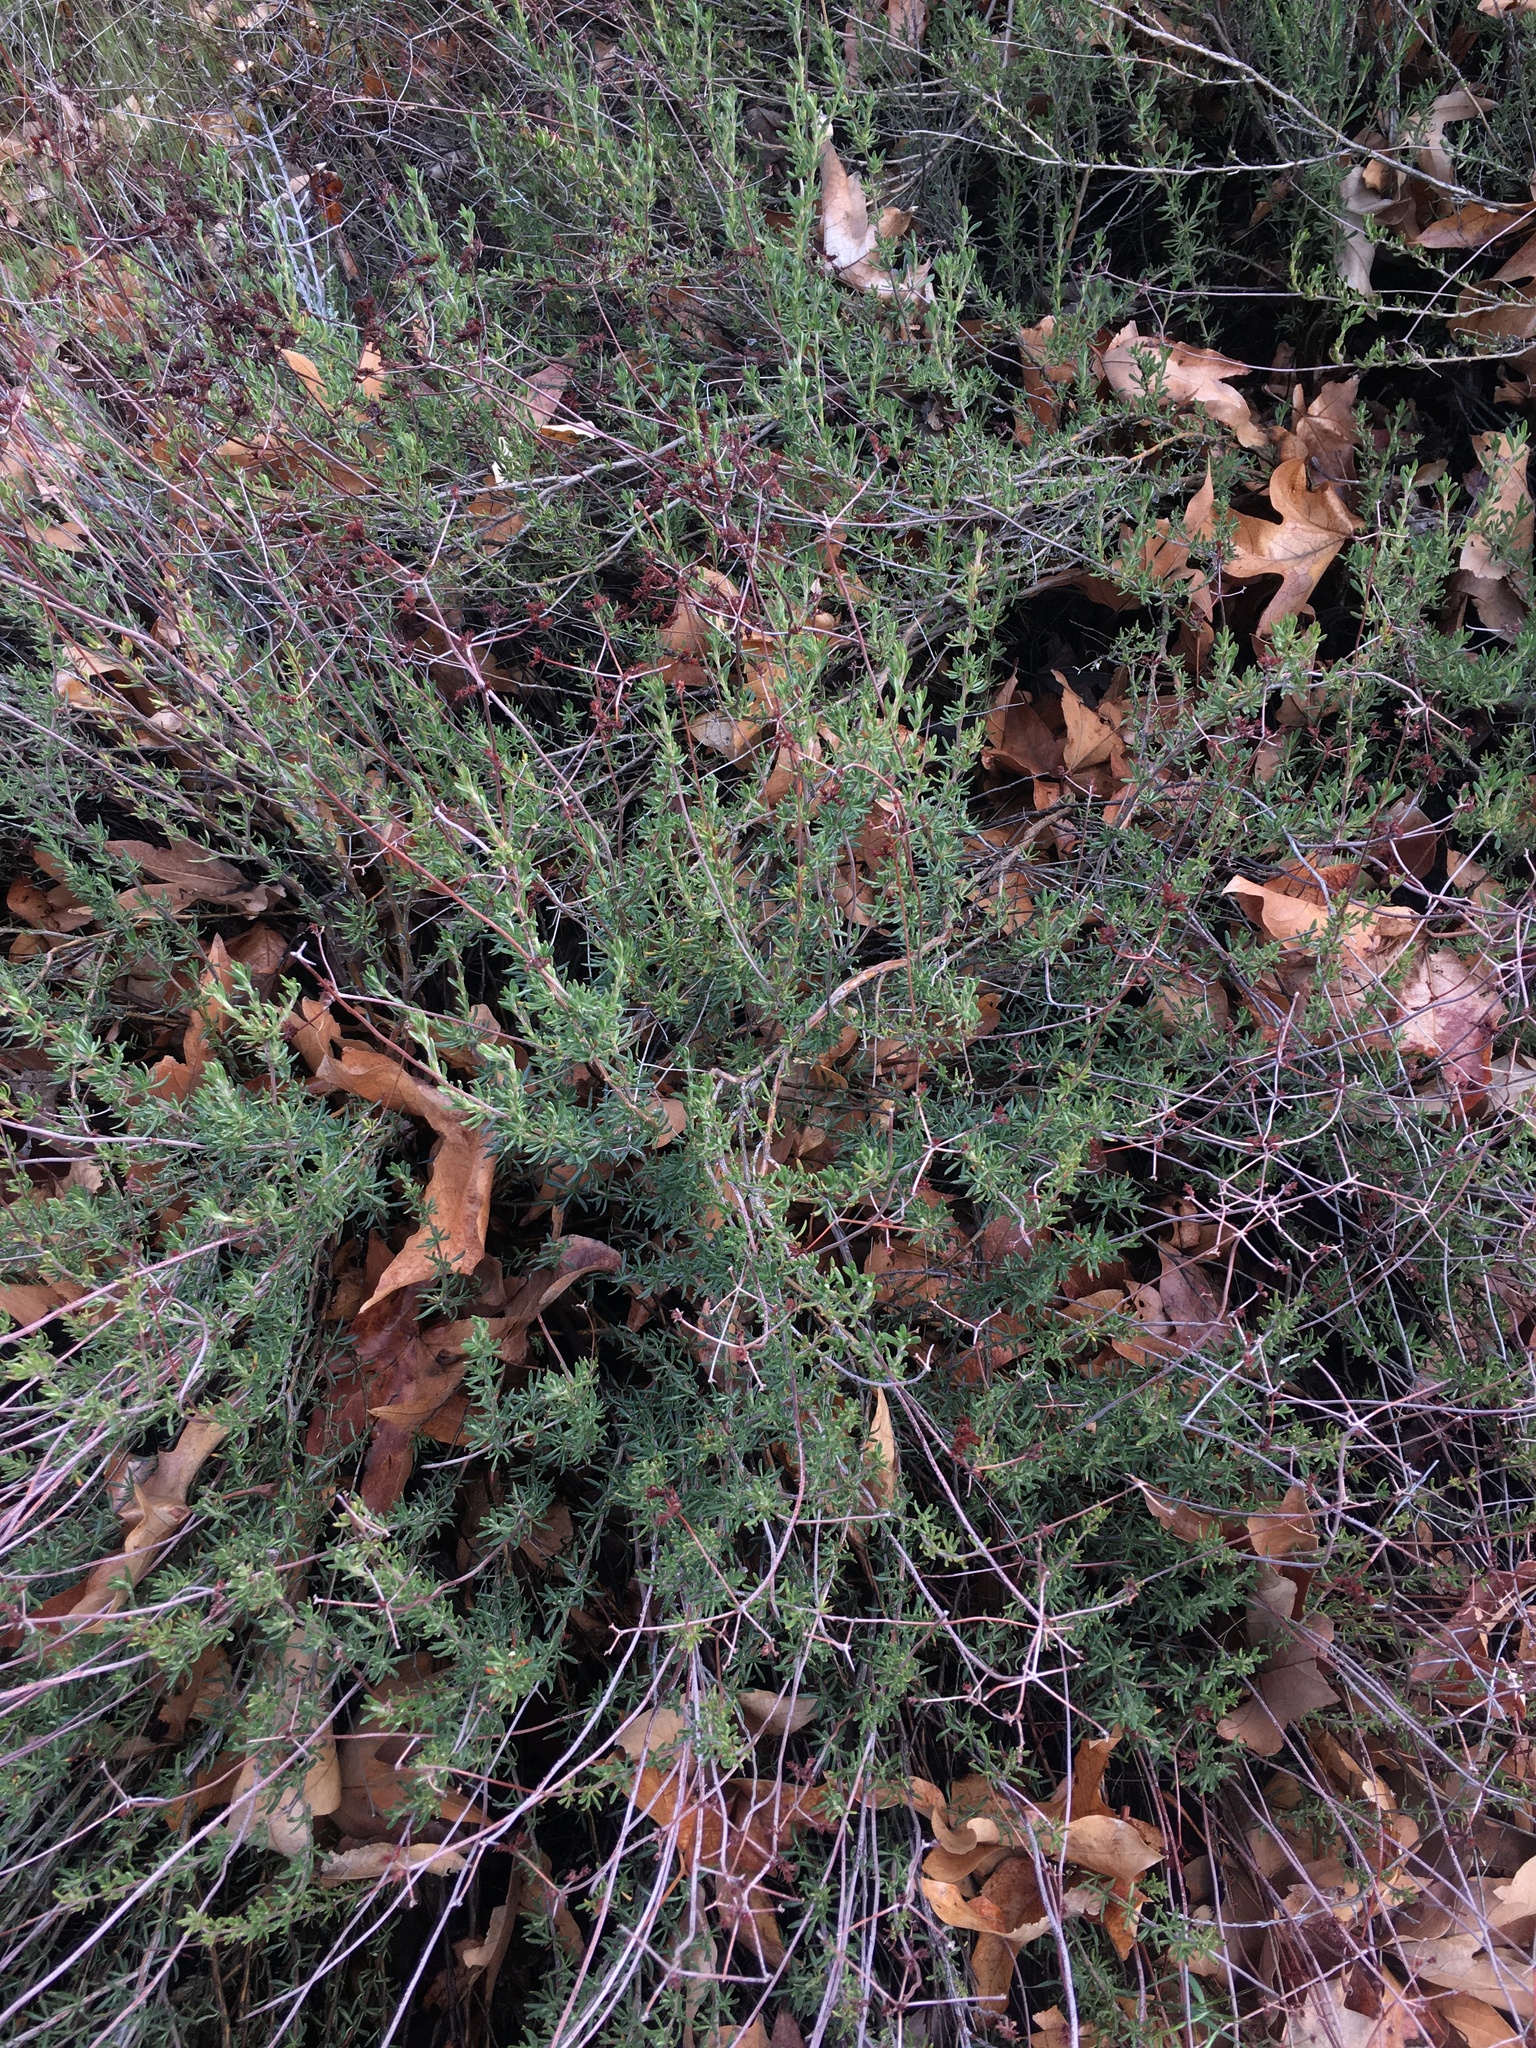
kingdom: Plantae
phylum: Tracheophyta
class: Magnoliopsida
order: Caryophyllales
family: Polygonaceae
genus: Eriogonum
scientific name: Eriogonum fasciculatum
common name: California wild buckwheat
